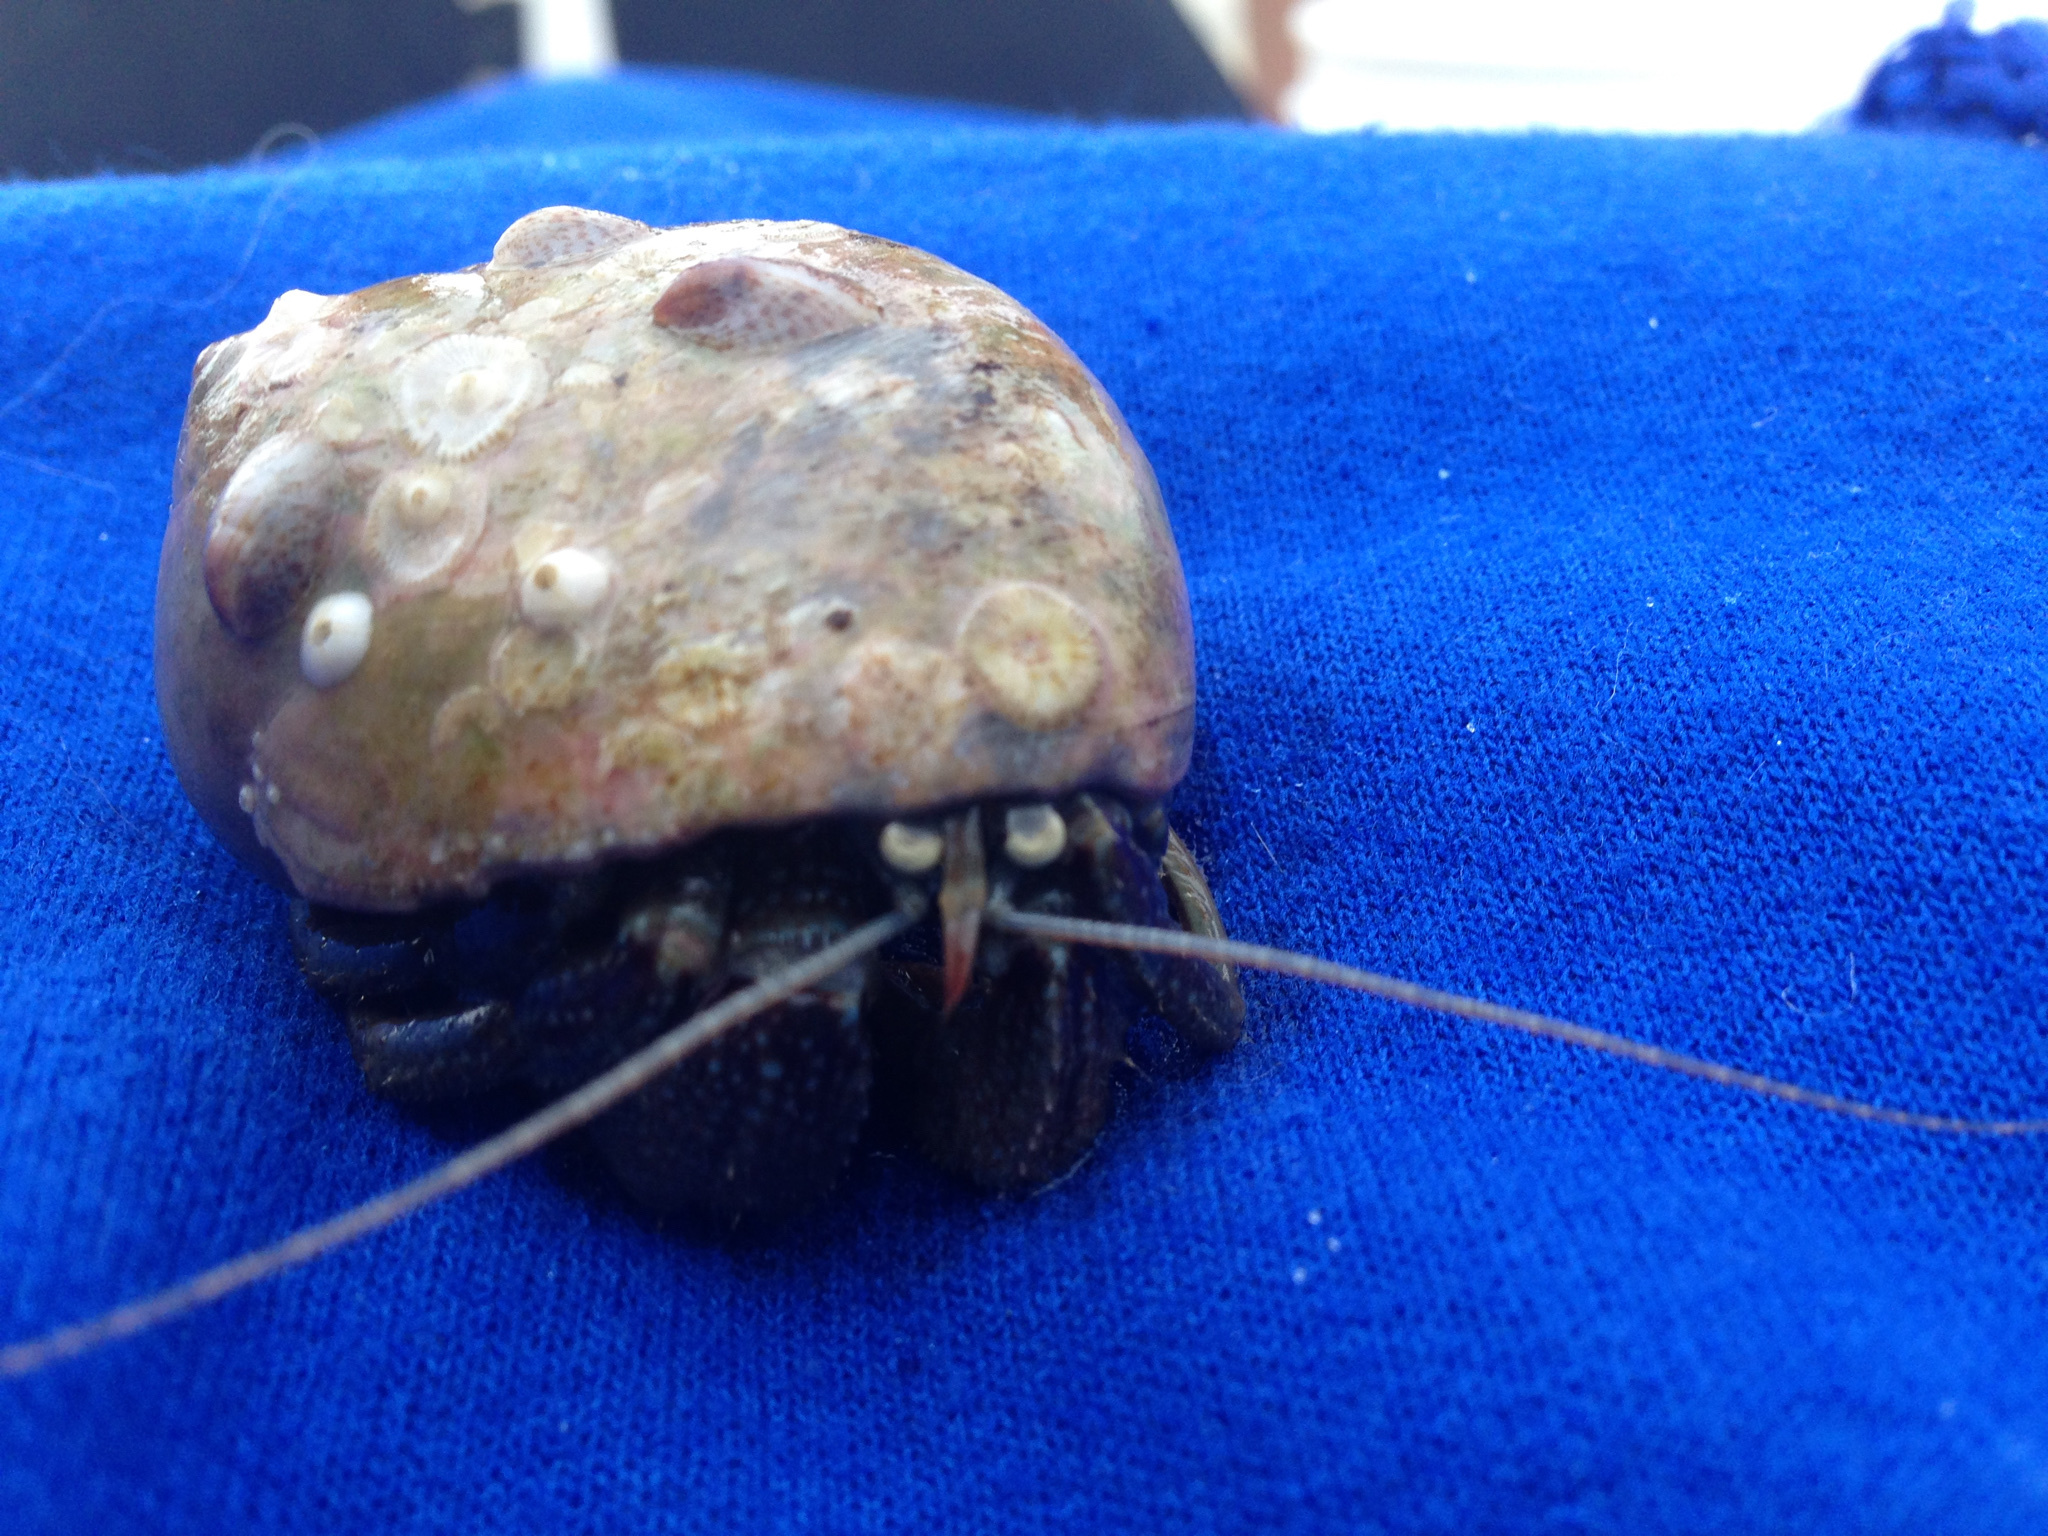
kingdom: Animalia
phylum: Arthropoda
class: Malacostraca
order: Decapoda
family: Paguridae
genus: Pagurus
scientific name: Pagurus pollicaris
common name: Flatclaw hermit
